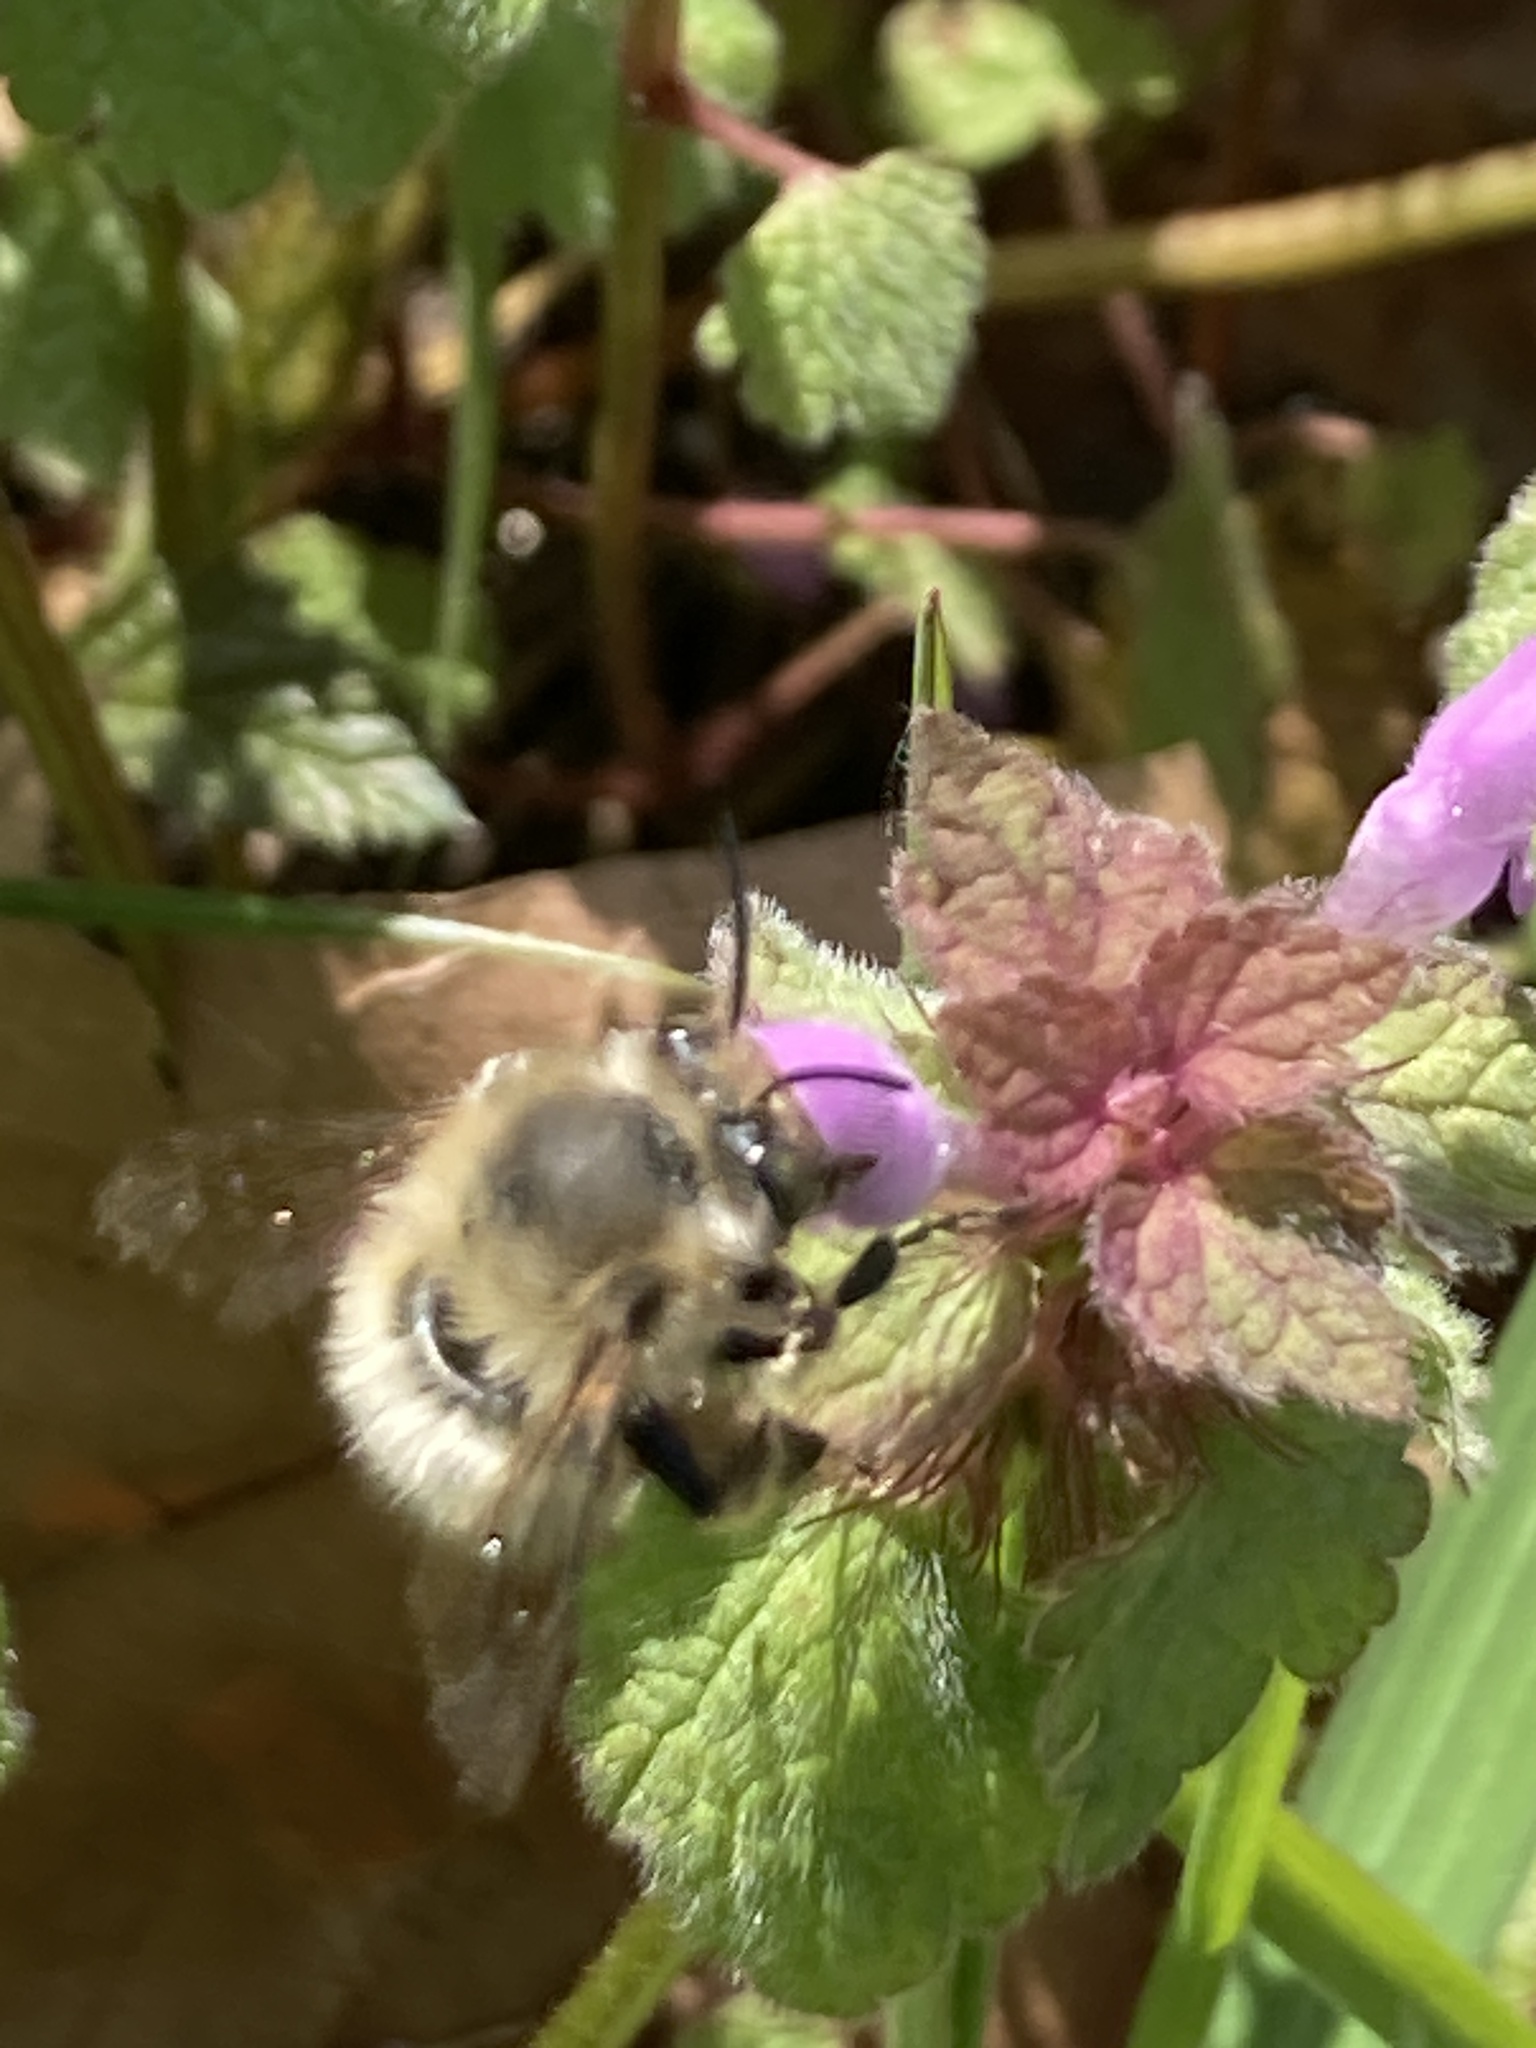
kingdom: Animalia
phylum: Arthropoda
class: Insecta
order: Hymenoptera
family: Apidae
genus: Anthophora
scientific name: Anthophora plumipes
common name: Hairy-footed flower bee
